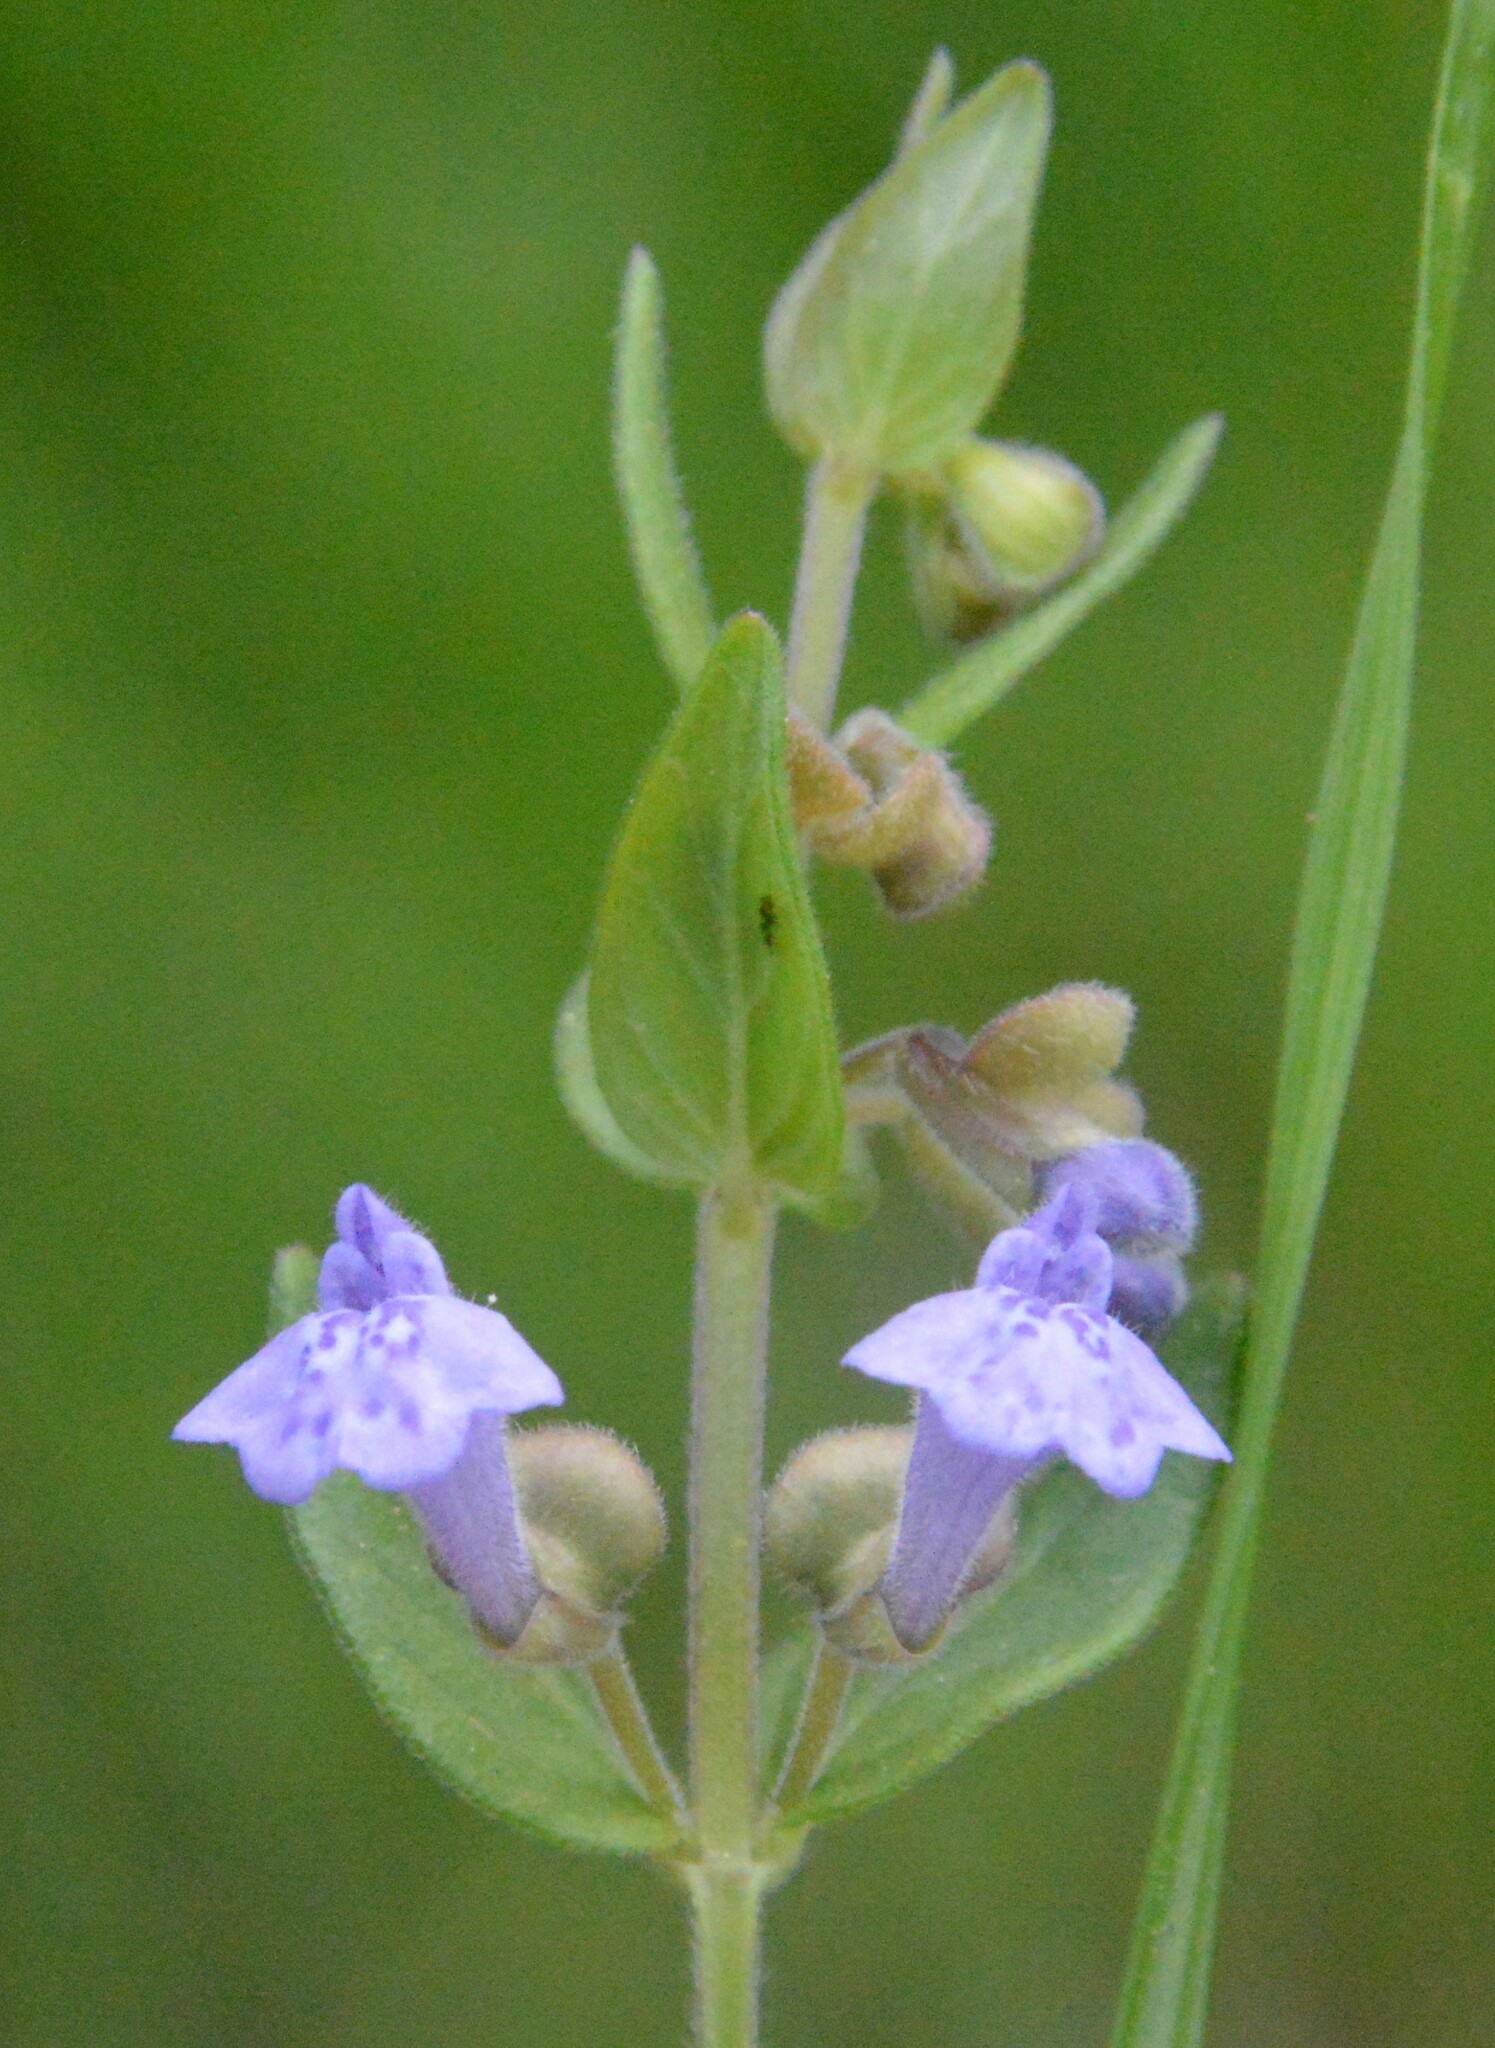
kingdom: Plantae
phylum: Tracheophyta
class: Magnoliopsida
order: Lamiales
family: Lamiaceae
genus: Scutellaria
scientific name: Scutellaria parvula
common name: Little scullcap
